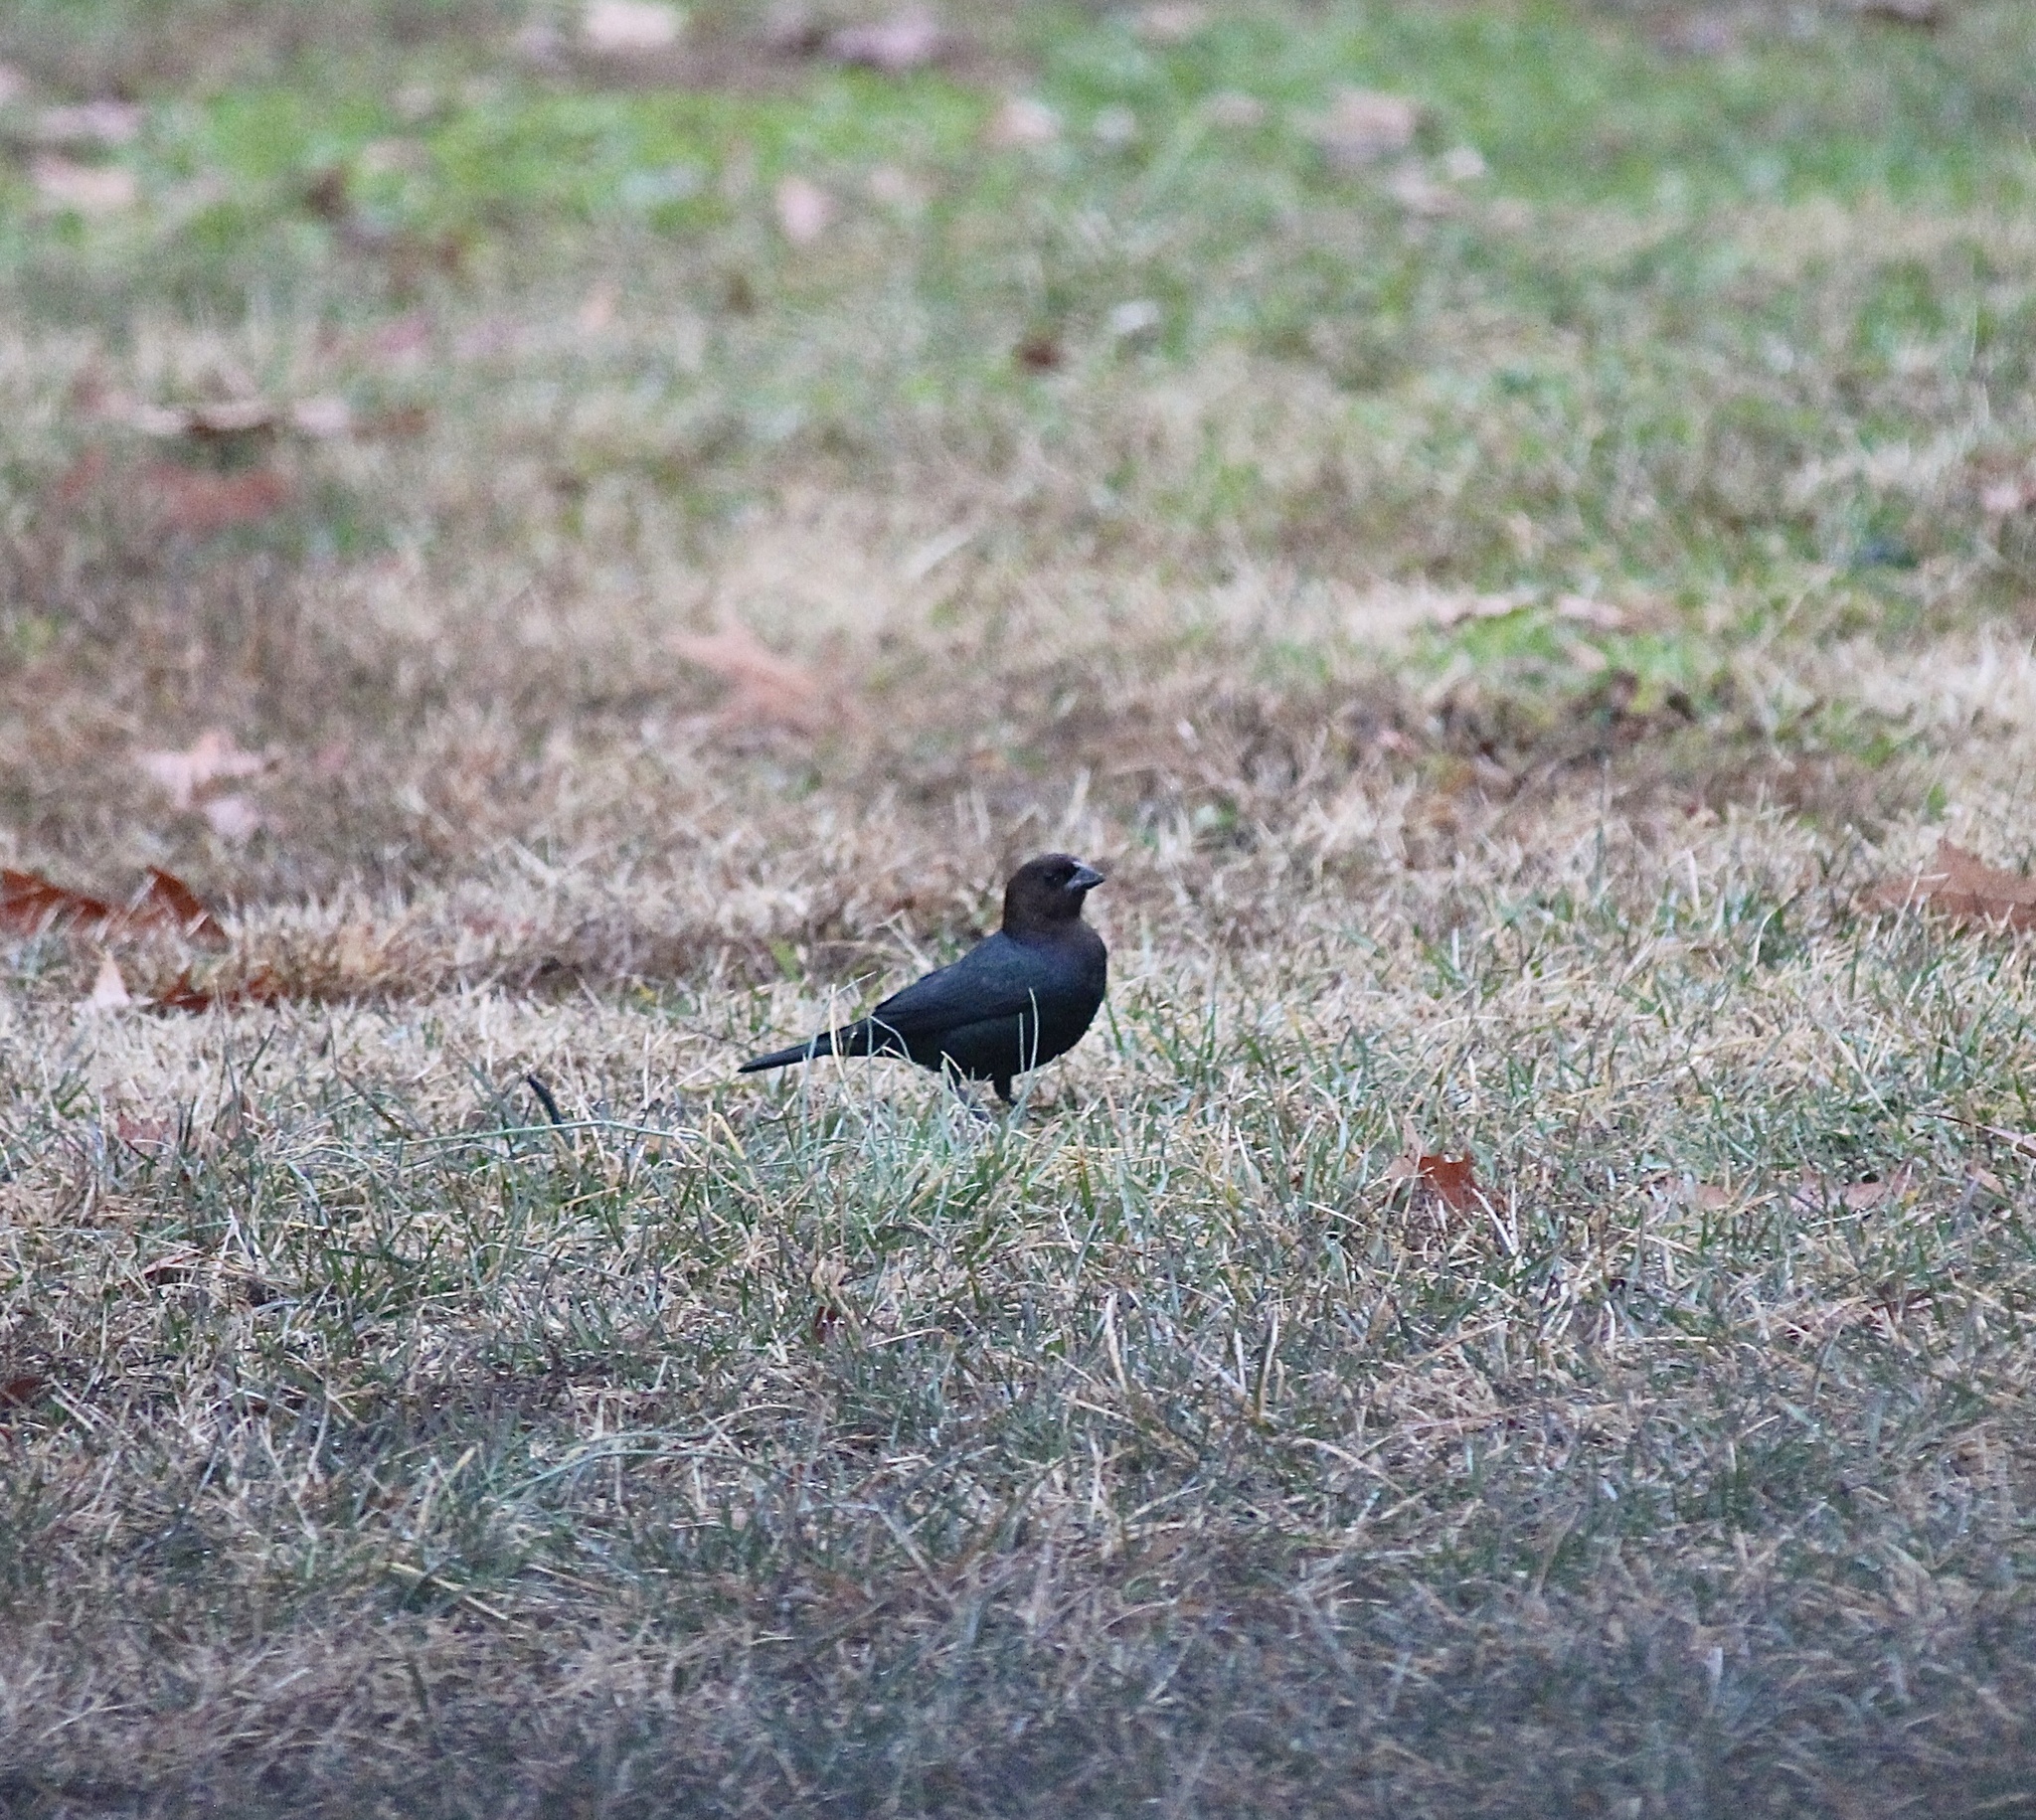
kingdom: Animalia
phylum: Chordata
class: Aves
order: Passeriformes
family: Icteridae
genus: Molothrus
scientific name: Molothrus ater
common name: Brown-headed cowbird
